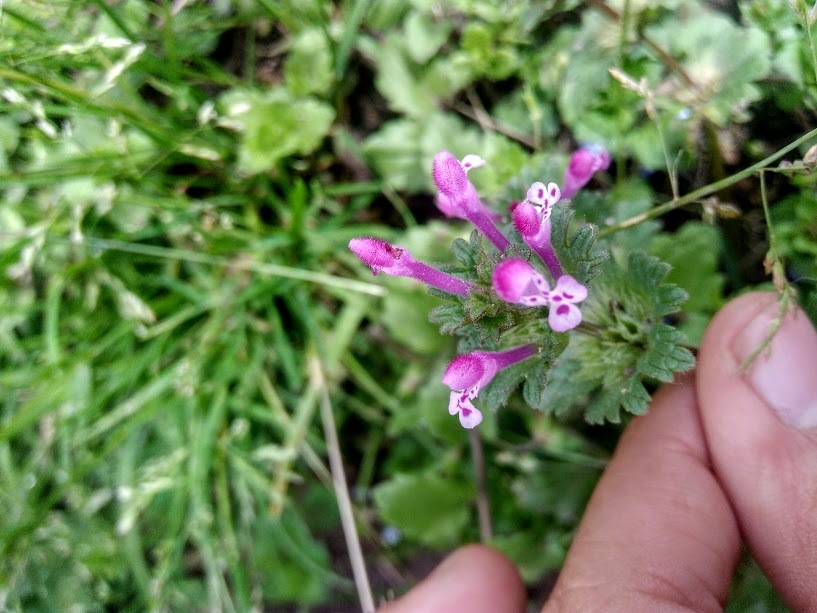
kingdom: Plantae
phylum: Tracheophyta
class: Magnoliopsida
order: Lamiales
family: Lamiaceae
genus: Lamium
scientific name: Lamium amplexicaule
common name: Henbit dead-nettle
